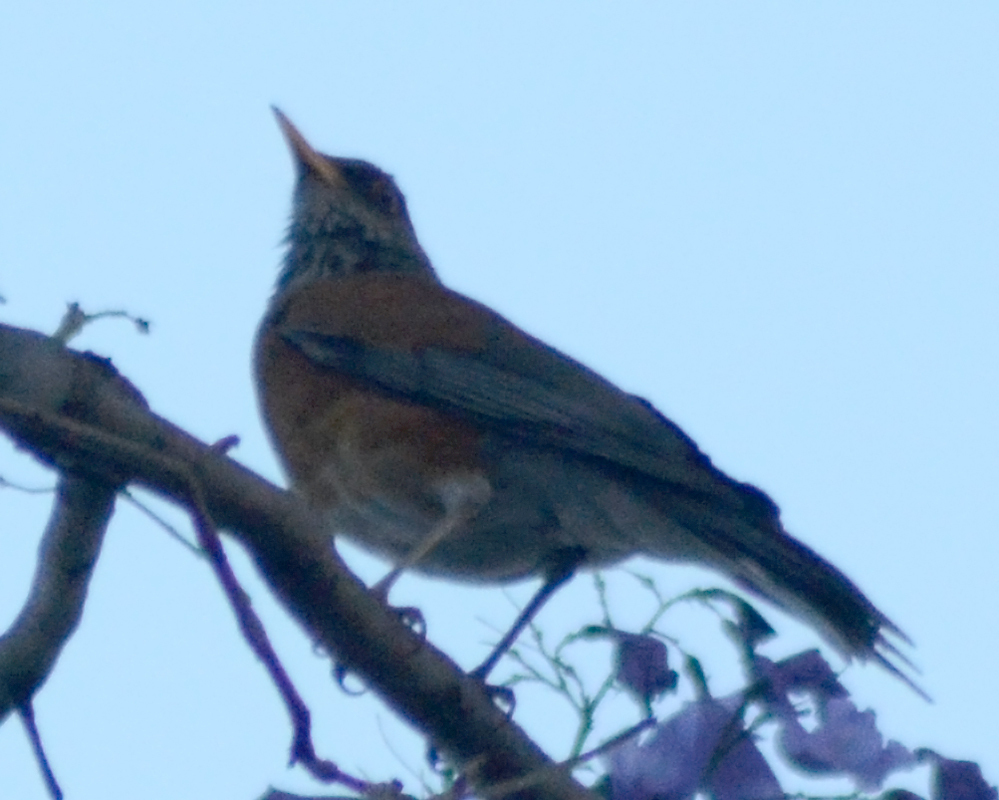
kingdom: Animalia
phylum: Chordata
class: Aves
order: Passeriformes
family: Turdidae
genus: Turdus
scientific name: Turdus rufopalliatus
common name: Rufous-backed robin
